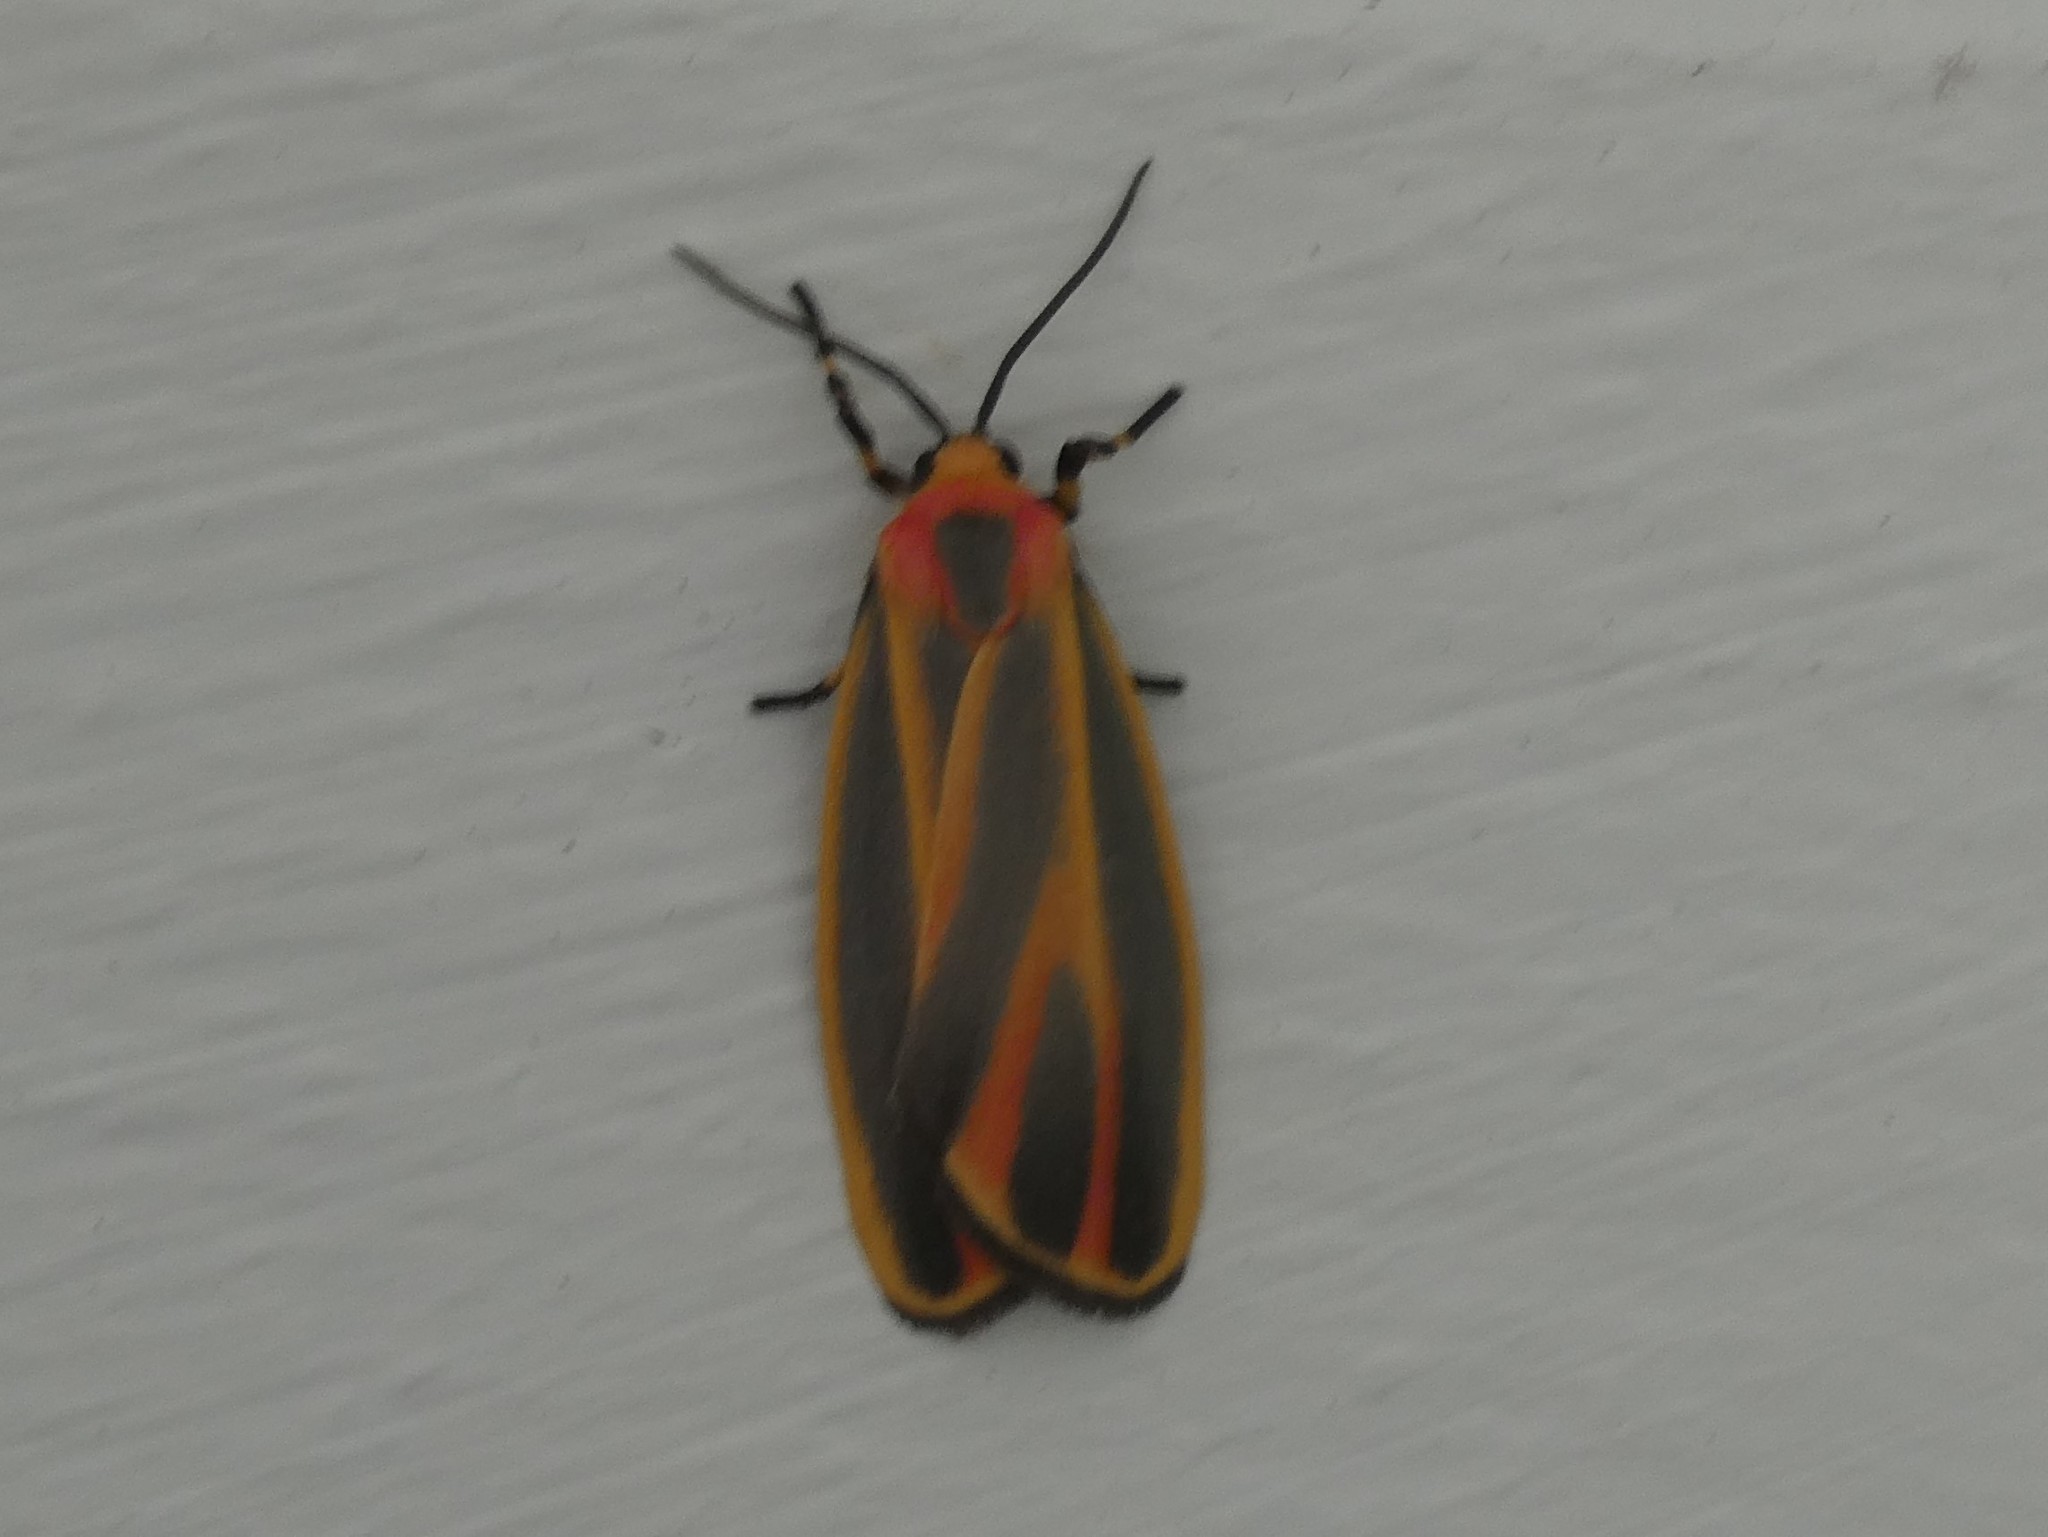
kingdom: Animalia
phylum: Arthropoda
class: Insecta
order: Lepidoptera
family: Erebidae
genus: Hypoprepia
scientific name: Hypoprepia fucosa
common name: Painted lichen moth
